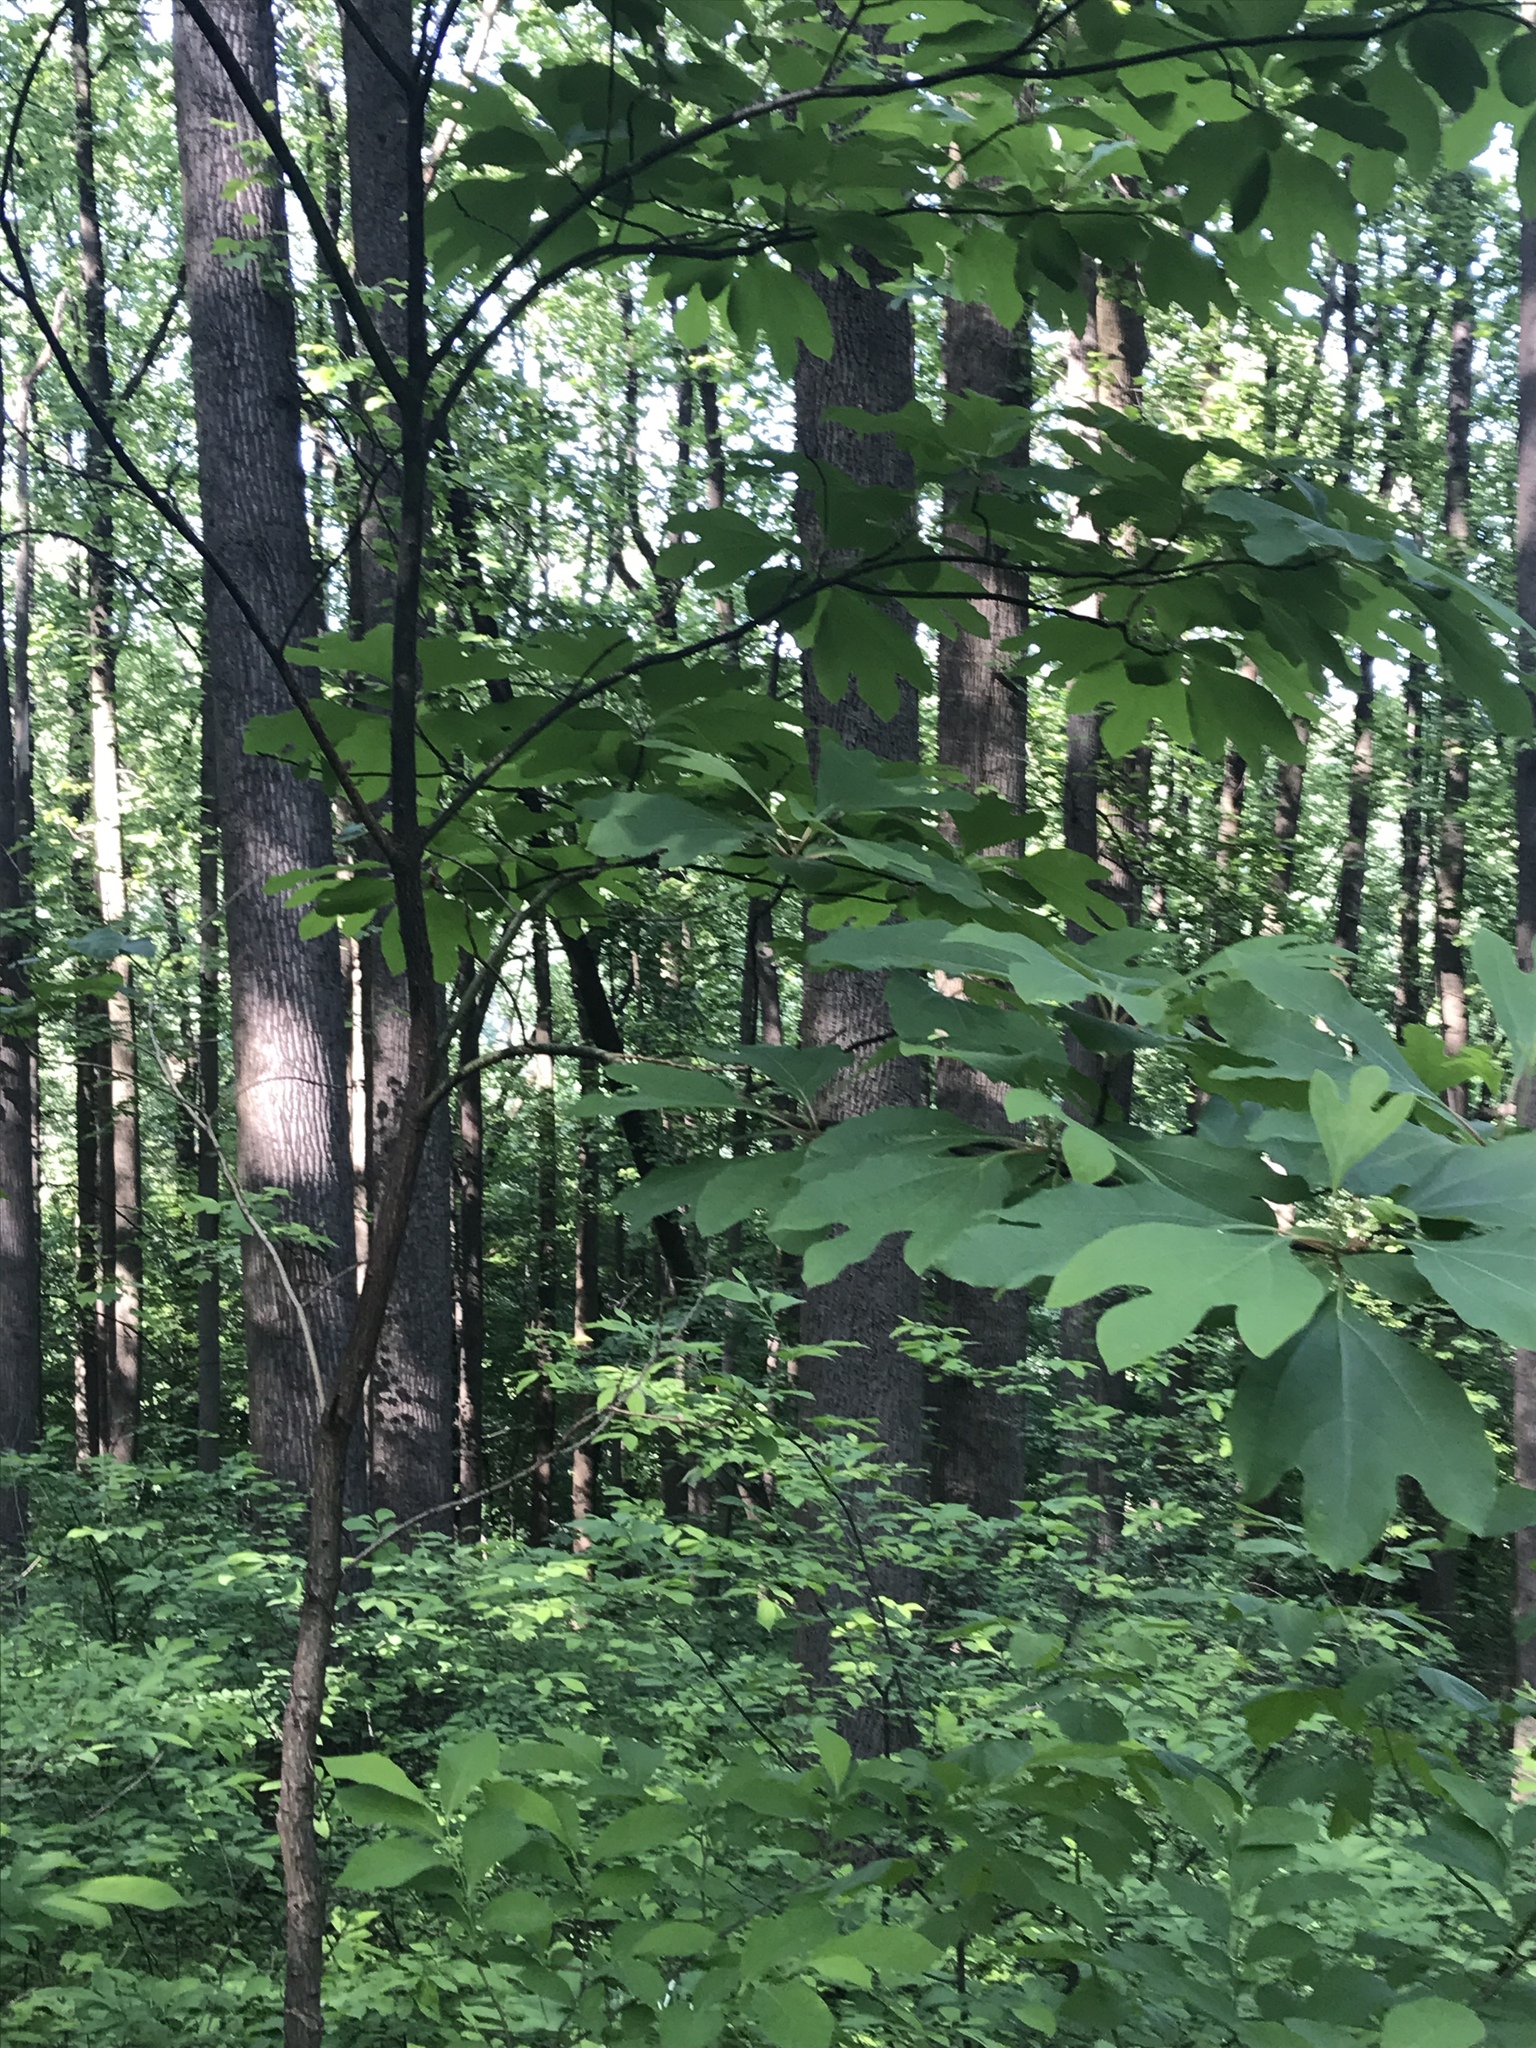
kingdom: Plantae
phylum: Tracheophyta
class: Magnoliopsida
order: Laurales
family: Lauraceae
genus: Sassafras
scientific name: Sassafras albidum
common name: Sassafras
